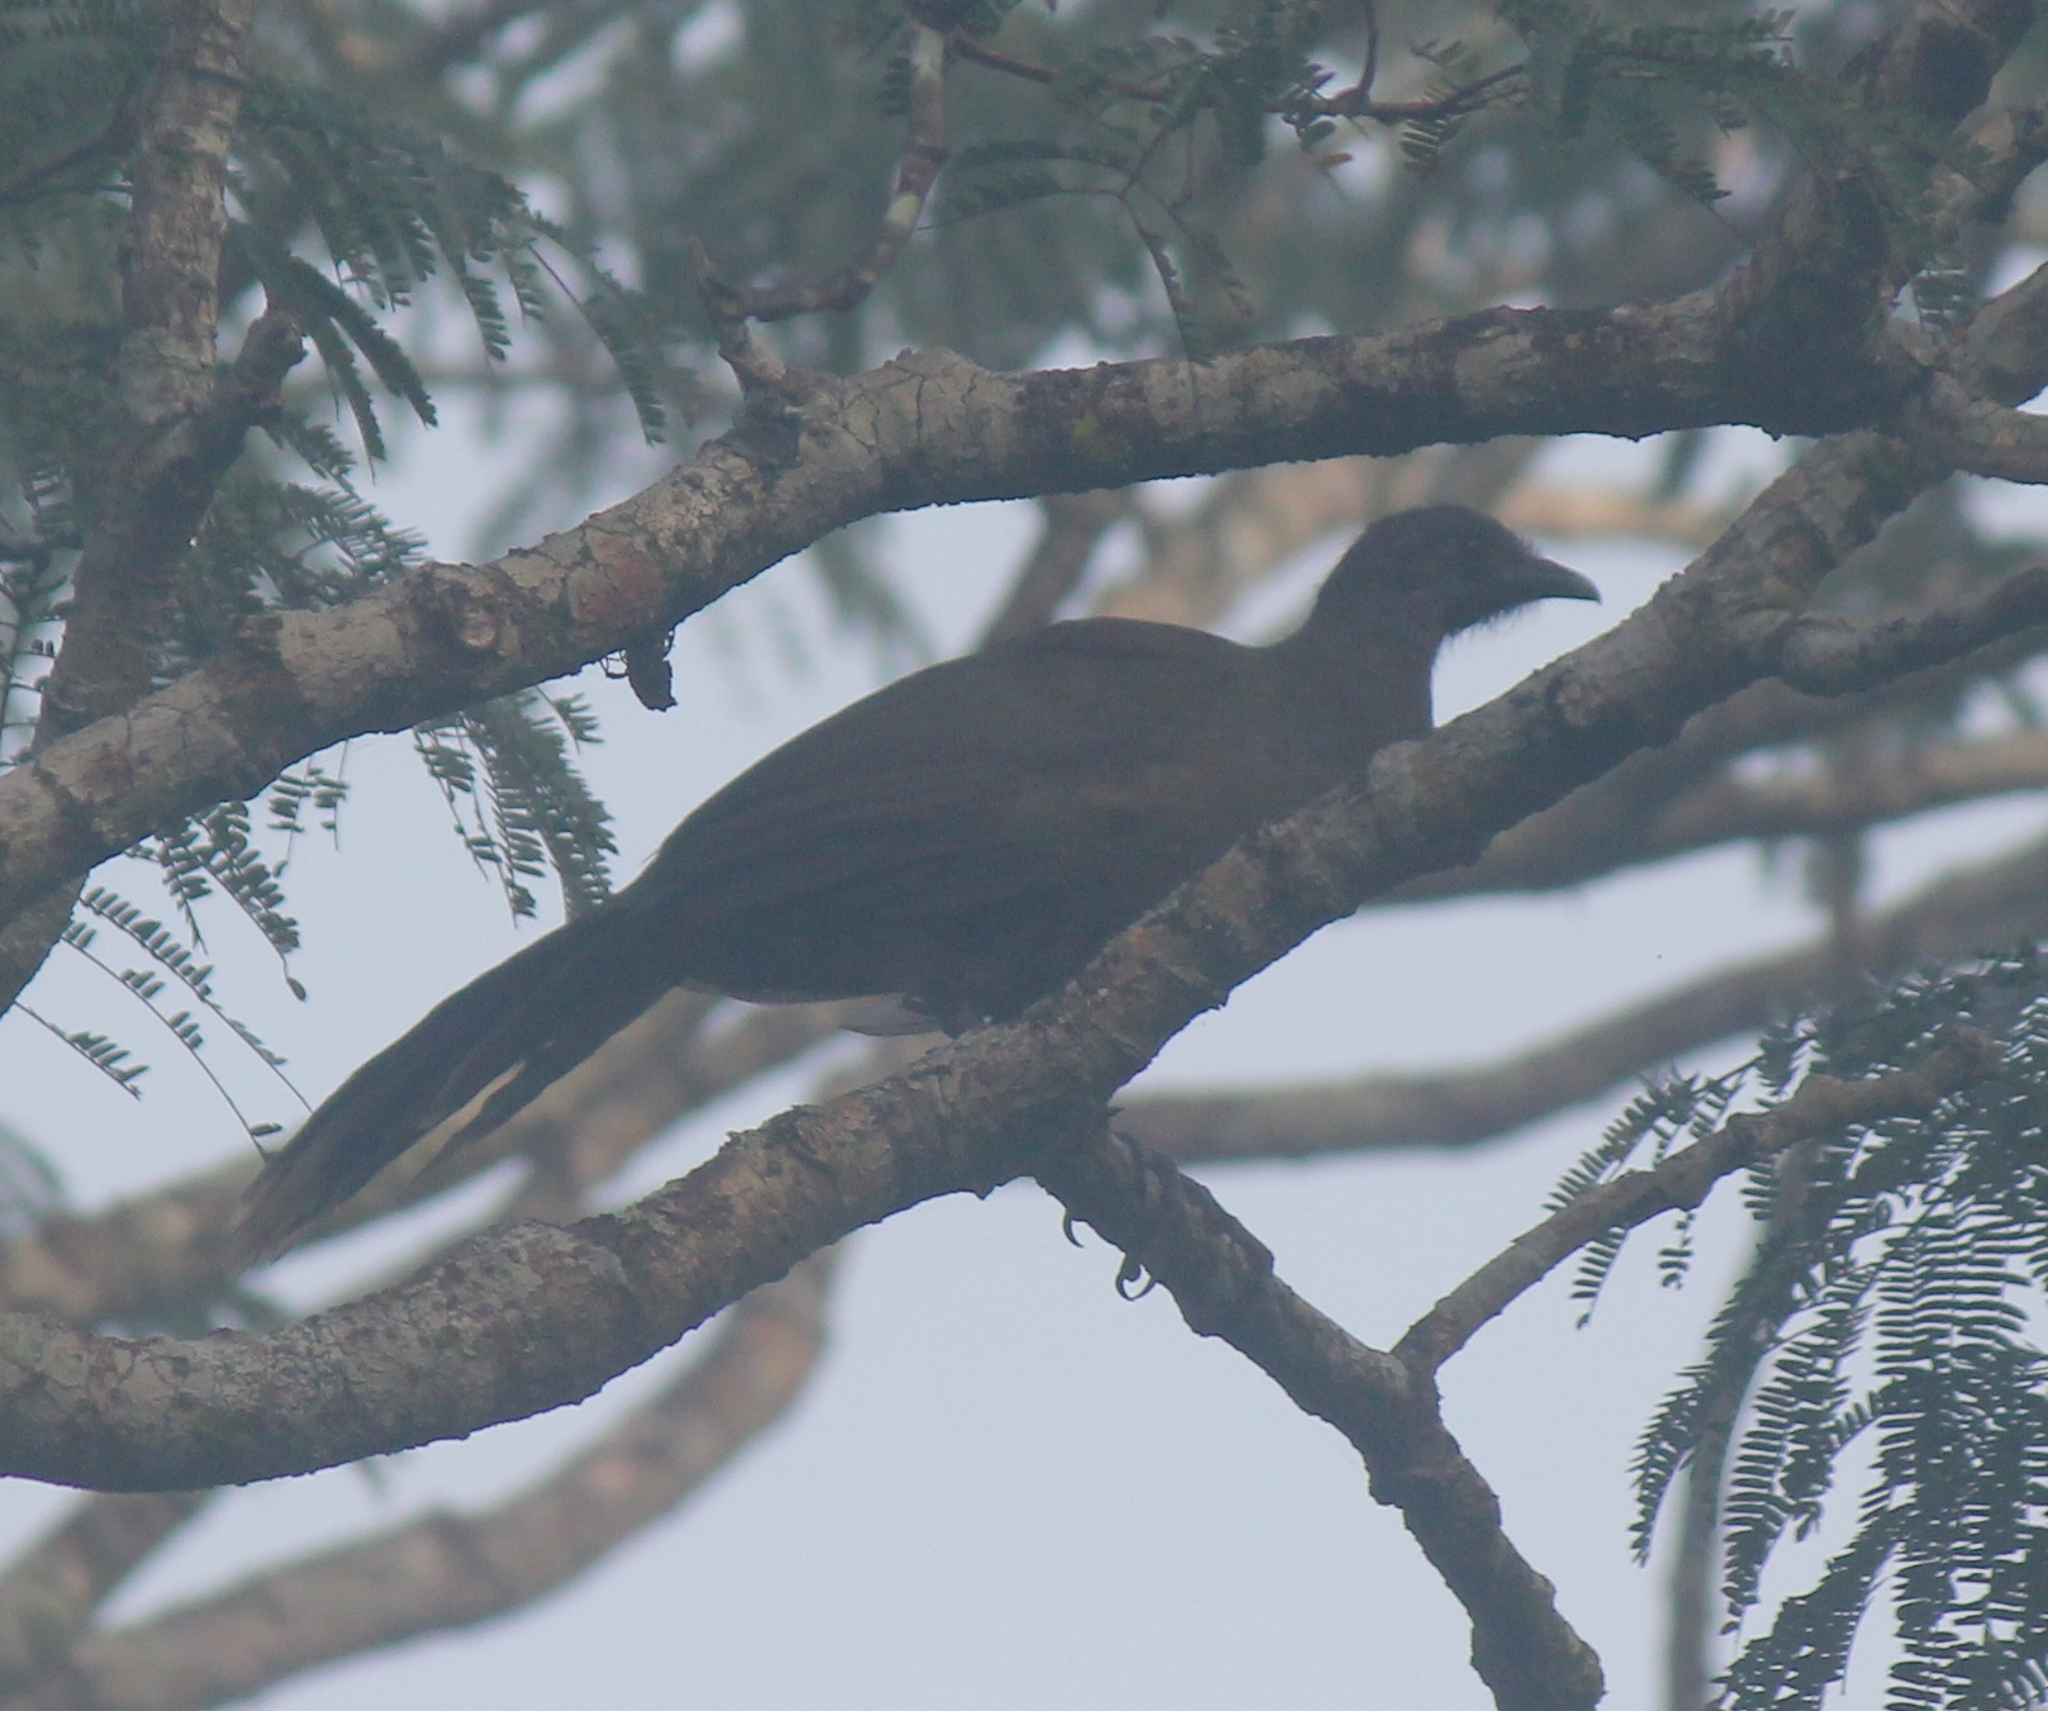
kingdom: Animalia
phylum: Chordata
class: Aves
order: Galliformes
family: Cracidae
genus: Ortalis
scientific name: Ortalis vetula
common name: Plain chachalaca
